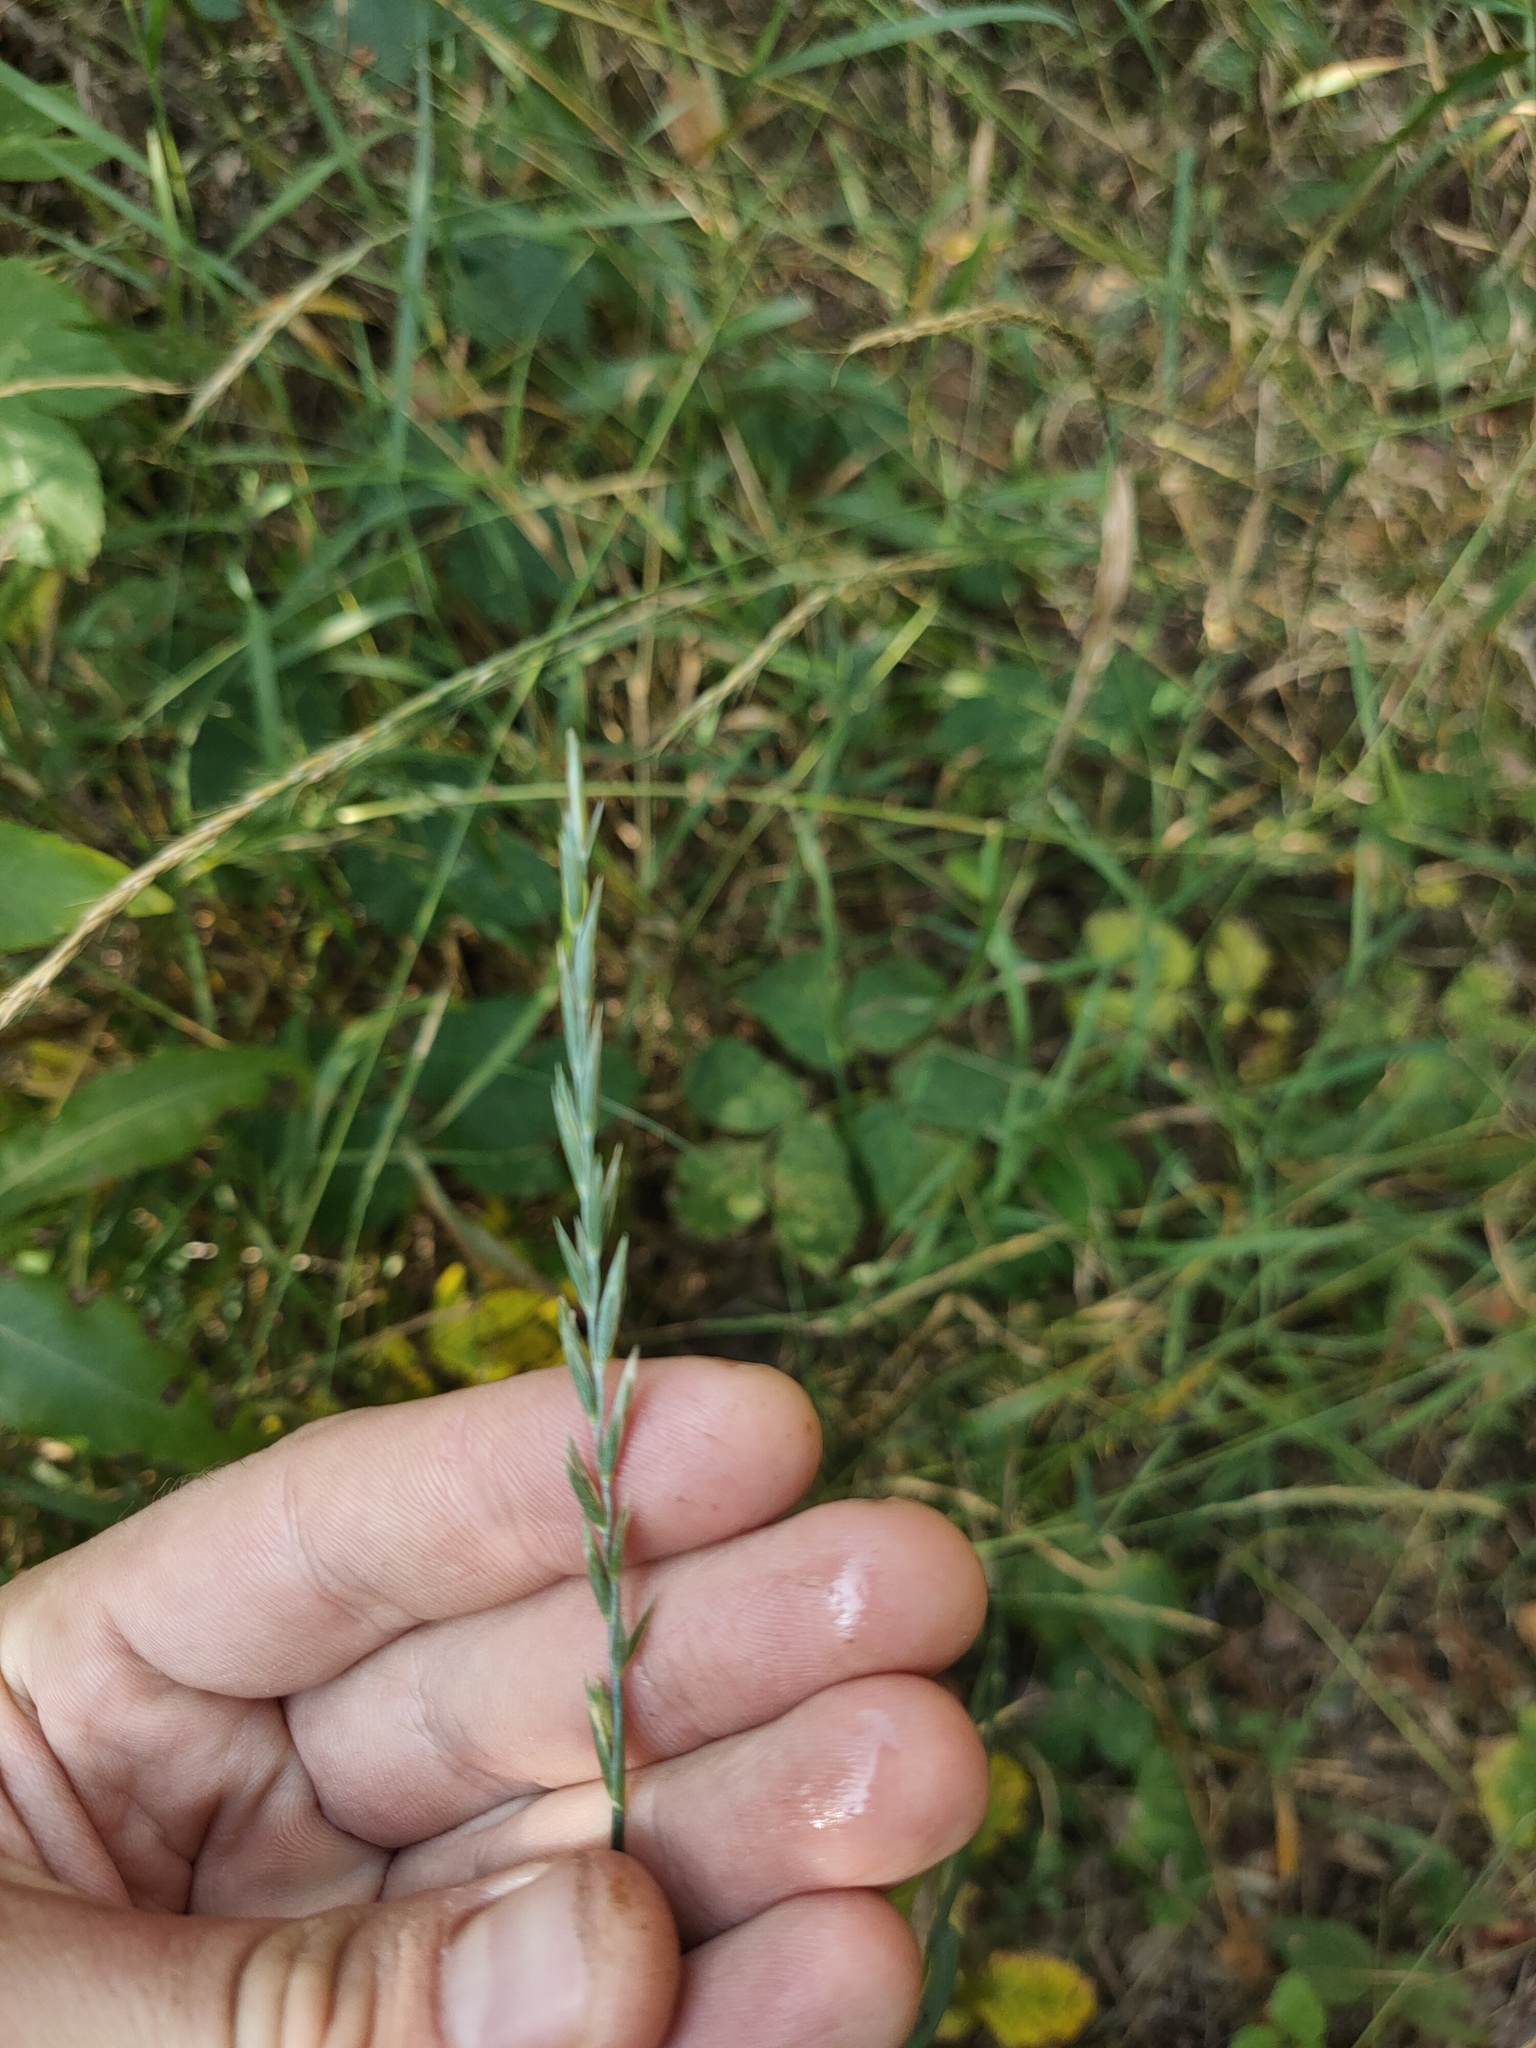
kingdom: Plantae
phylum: Tracheophyta
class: Liliopsida
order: Poales
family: Poaceae
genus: Elymus
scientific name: Elymus repens
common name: Quackgrass
